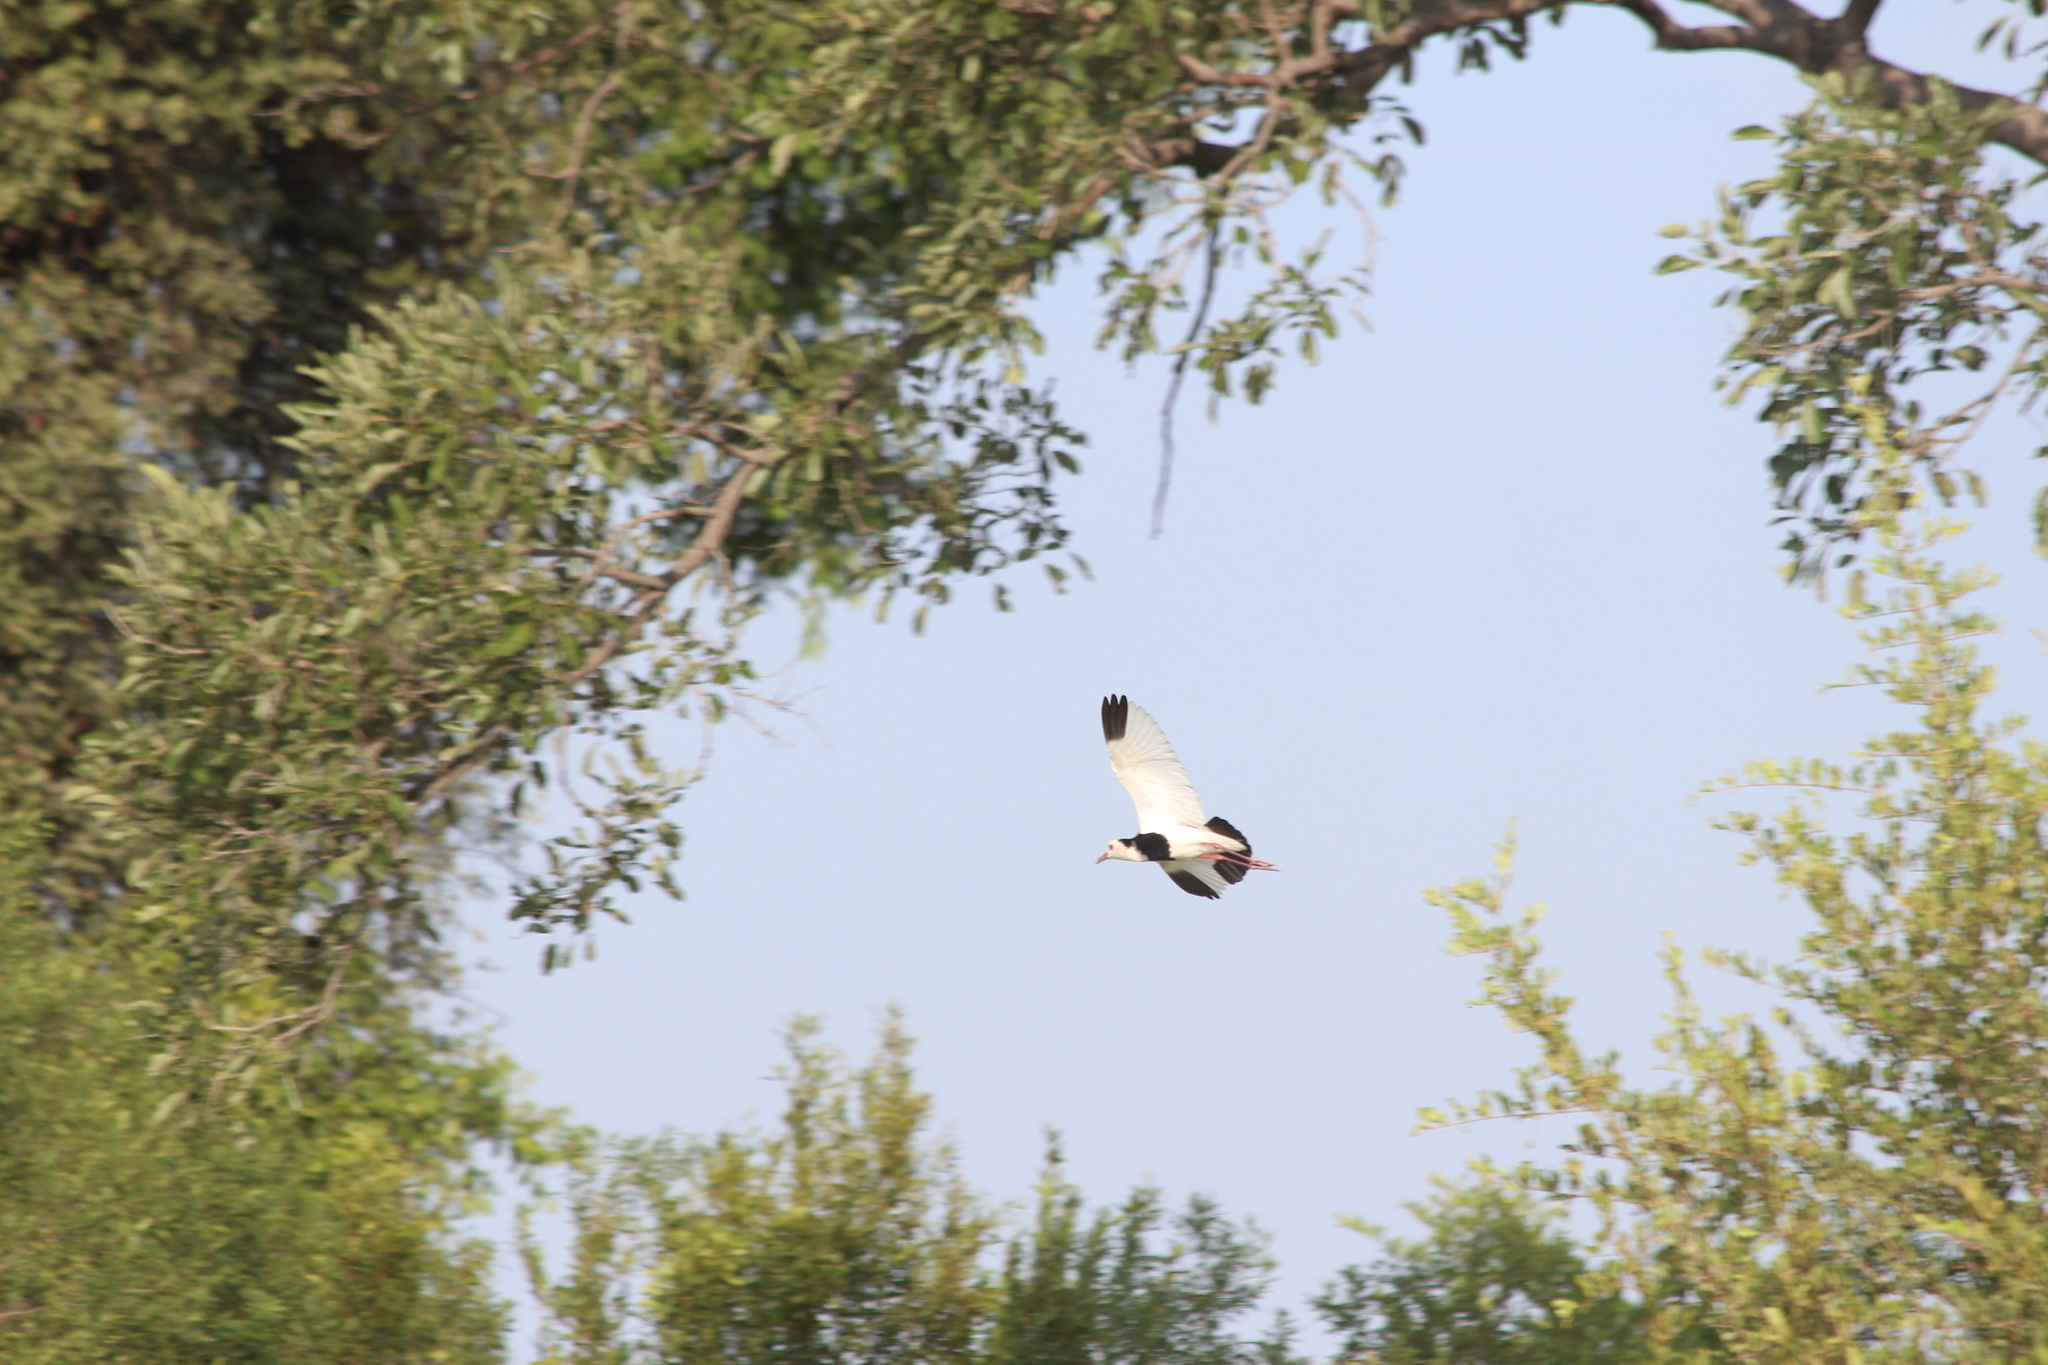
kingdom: Animalia
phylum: Chordata
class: Aves
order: Charadriiformes
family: Charadriidae
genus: Vanellus
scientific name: Vanellus crassirostris
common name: Long-toed lapwing
